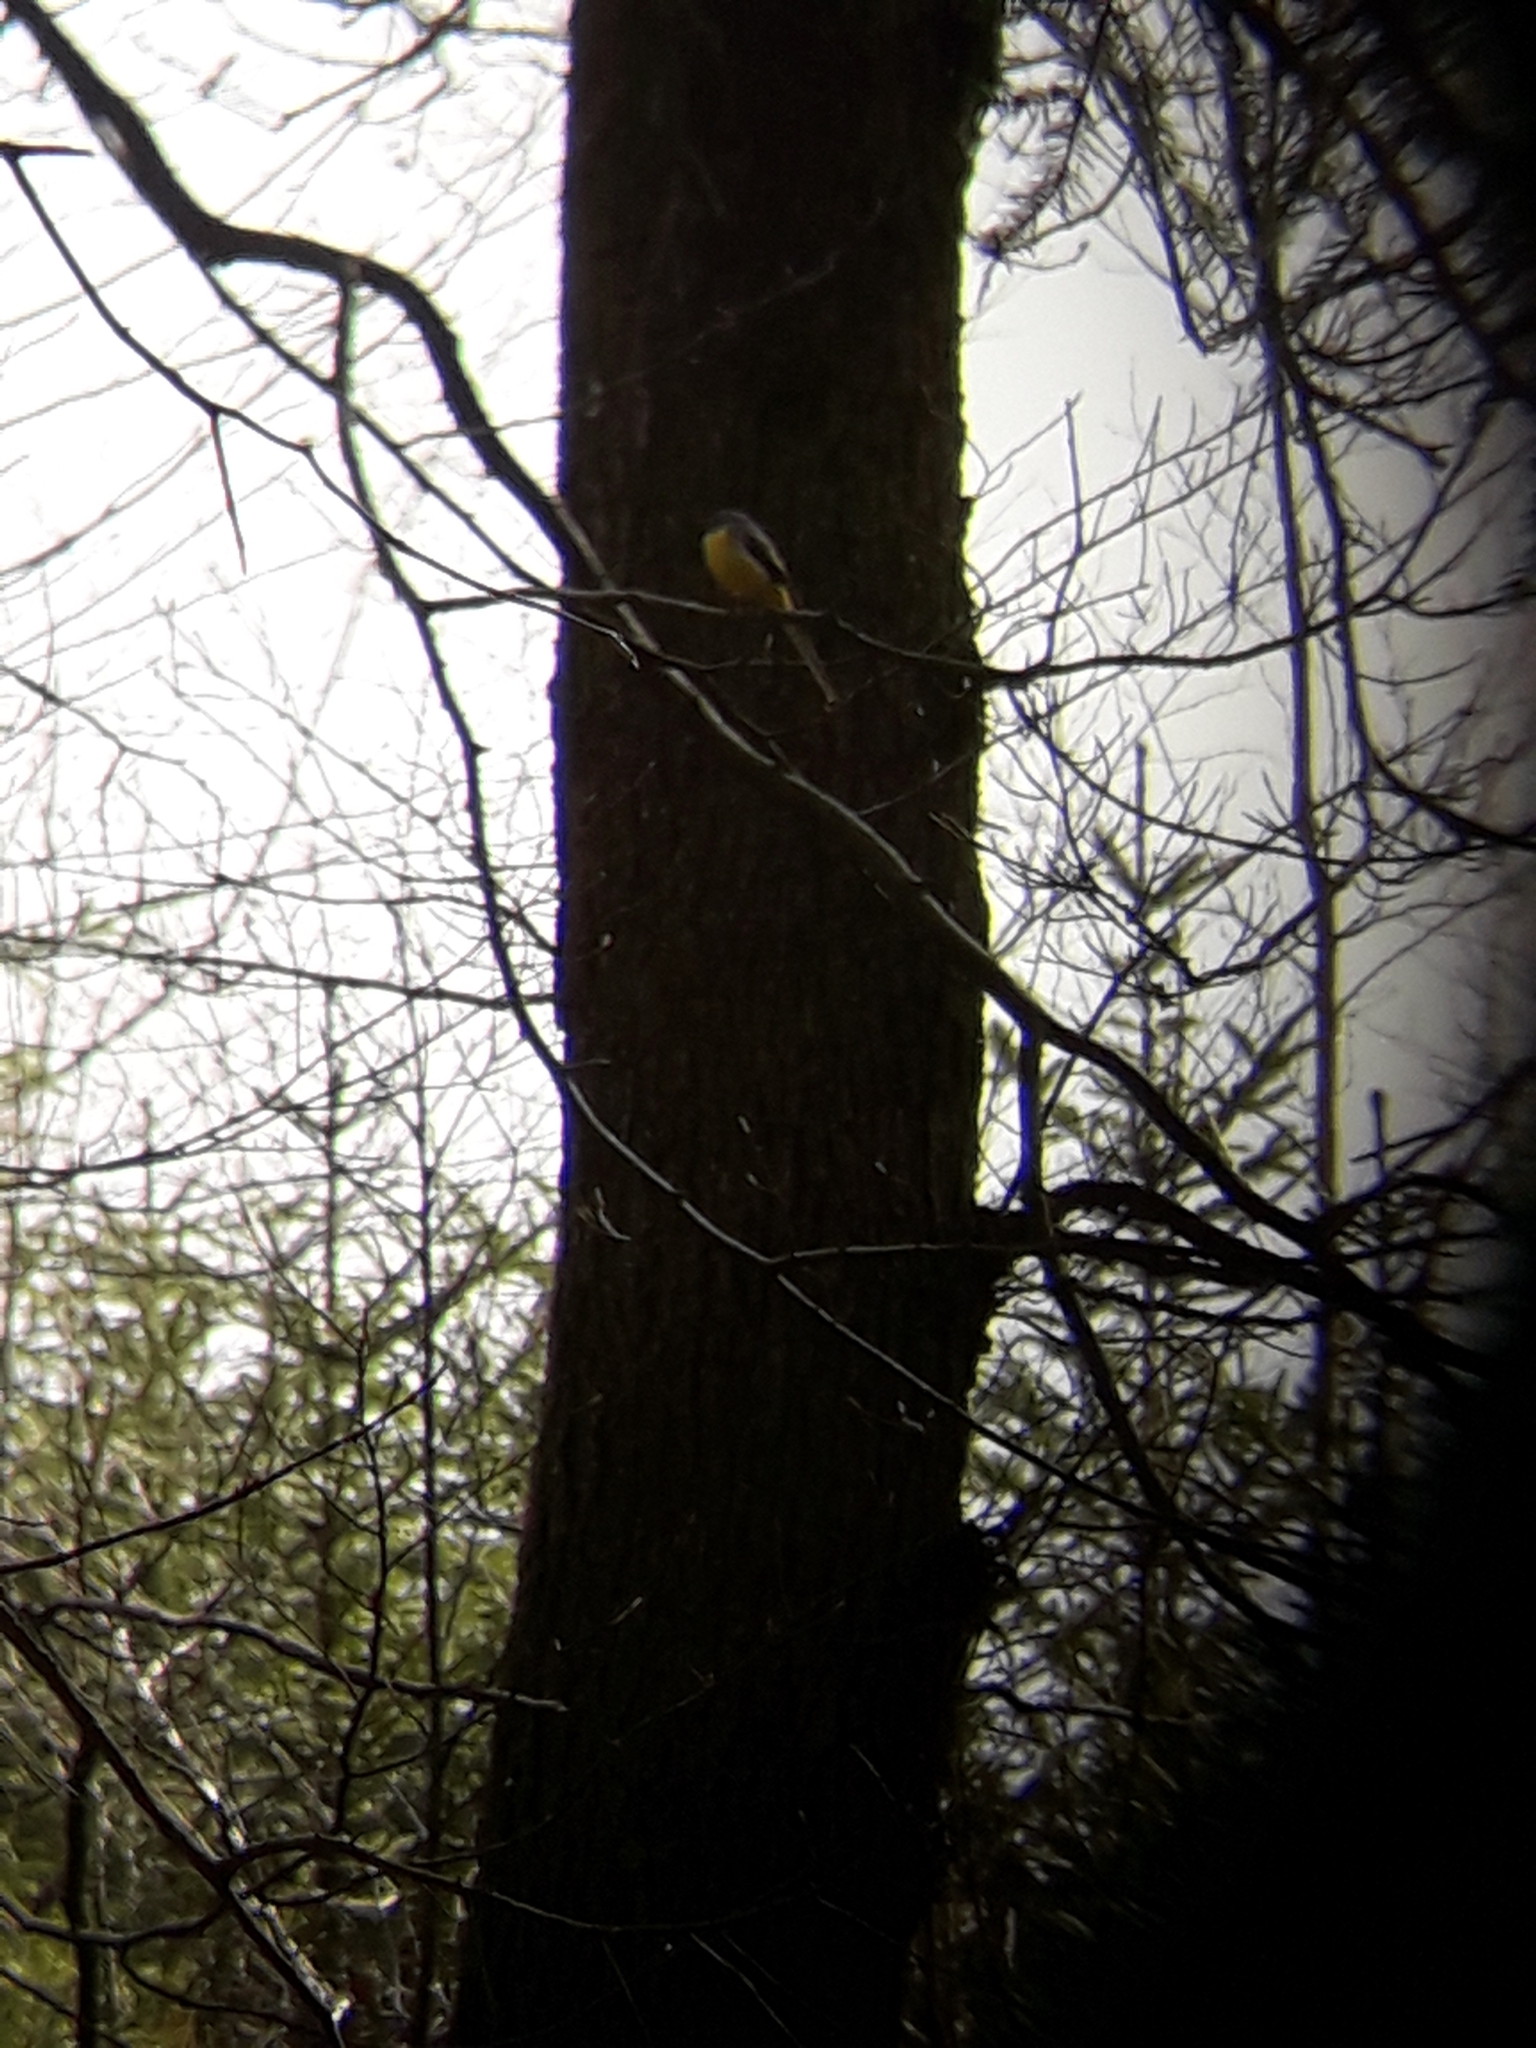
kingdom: Animalia
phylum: Chordata
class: Aves
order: Passeriformes
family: Motacillidae
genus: Motacilla
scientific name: Motacilla cinerea
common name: Grey wagtail
